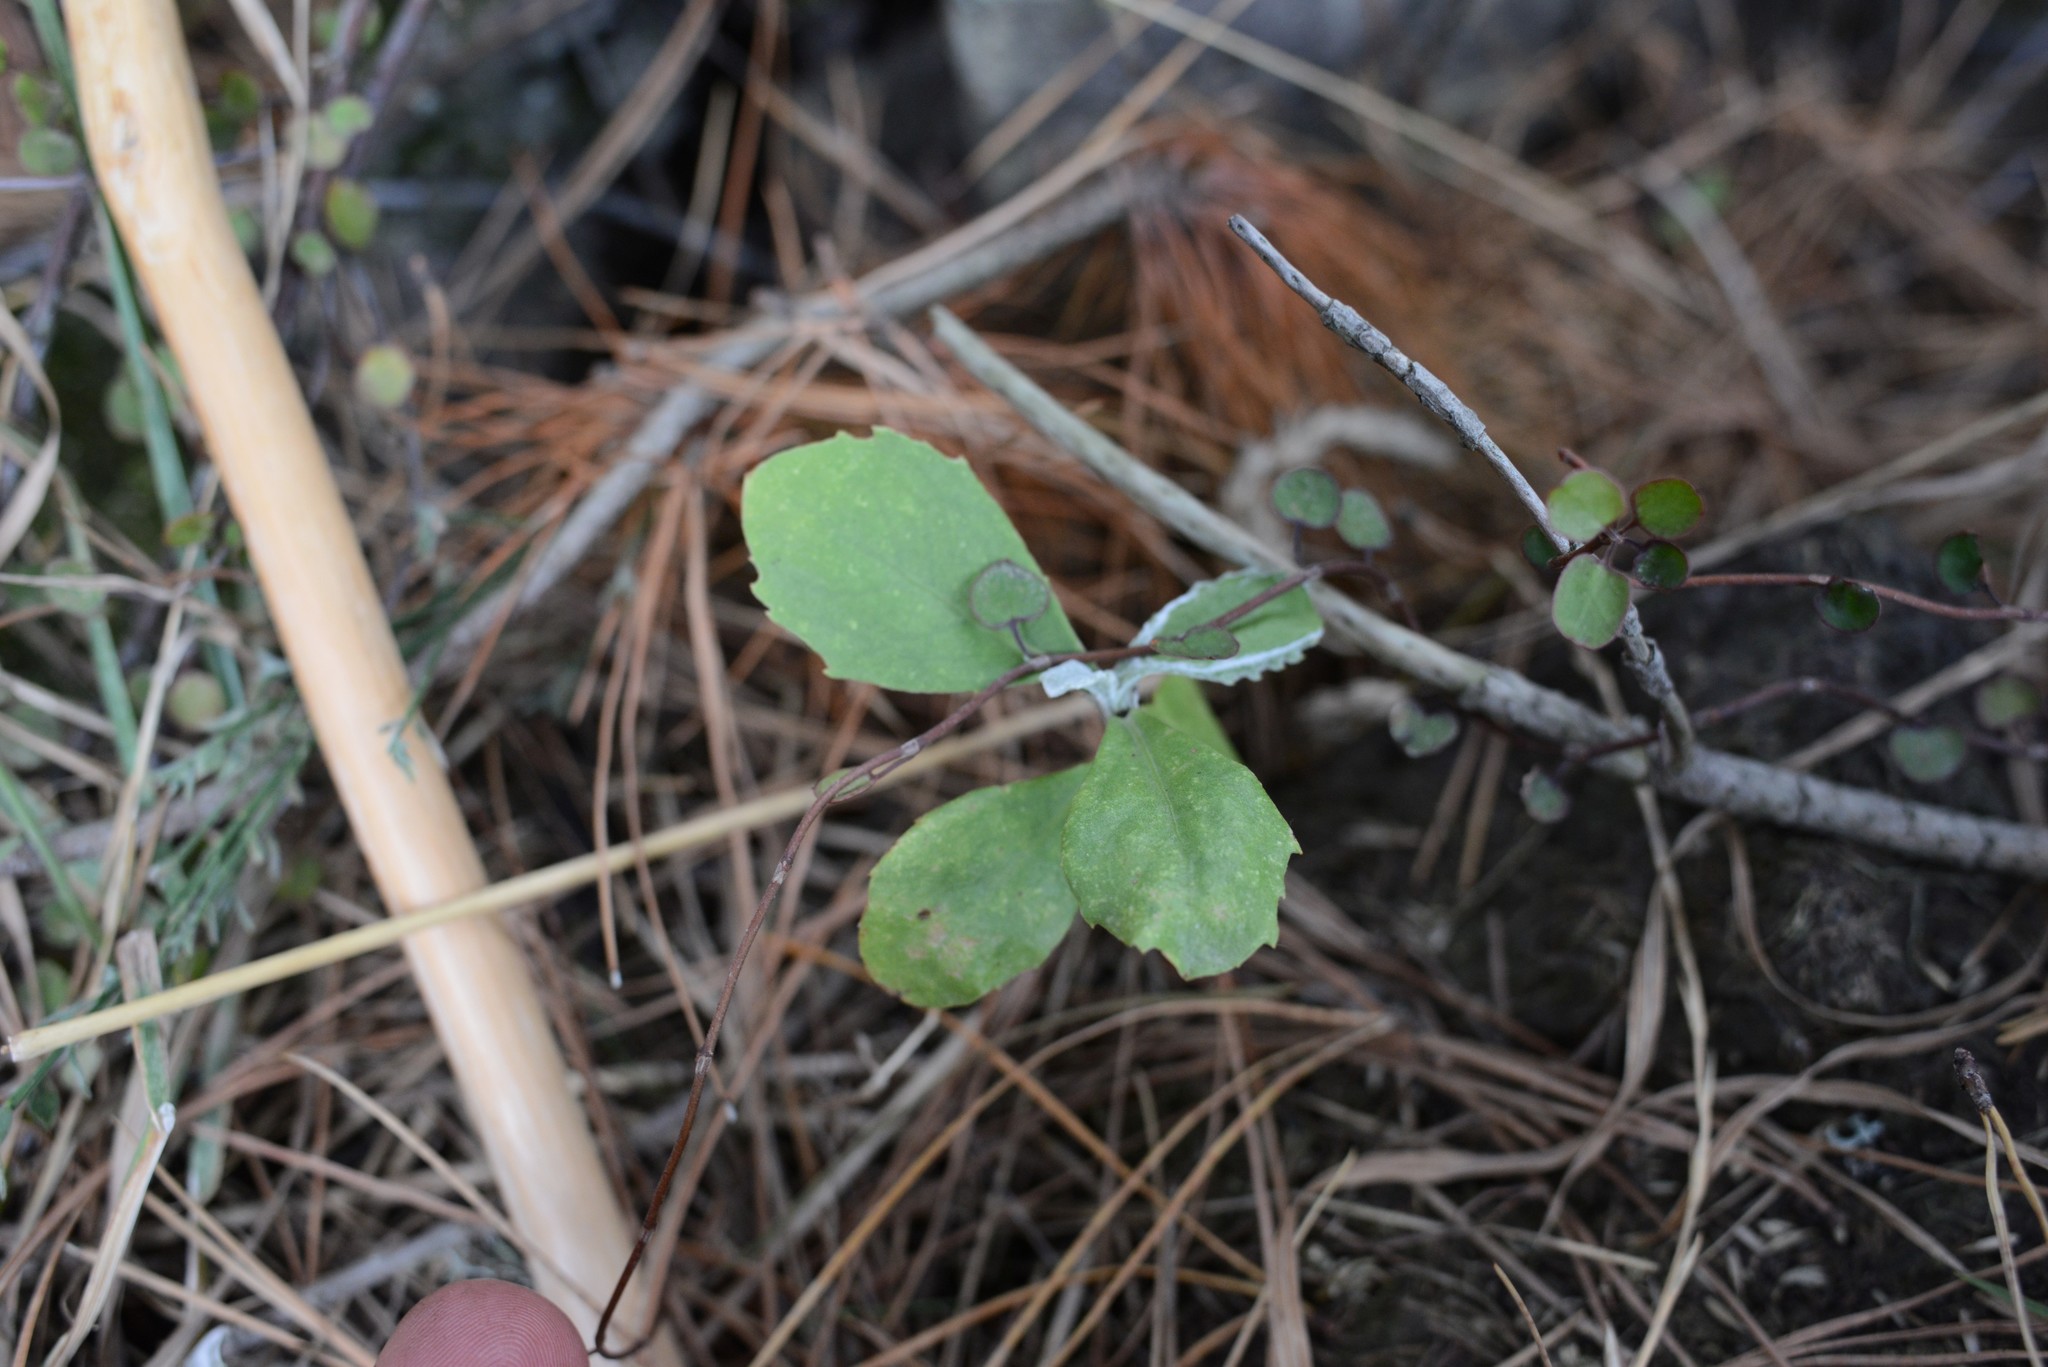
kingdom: Plantae
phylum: Tracheophyta
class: Magnoliopsida
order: Asterales
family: Asteraceae
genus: Osteospermum
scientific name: Osteospermum moniliferum
